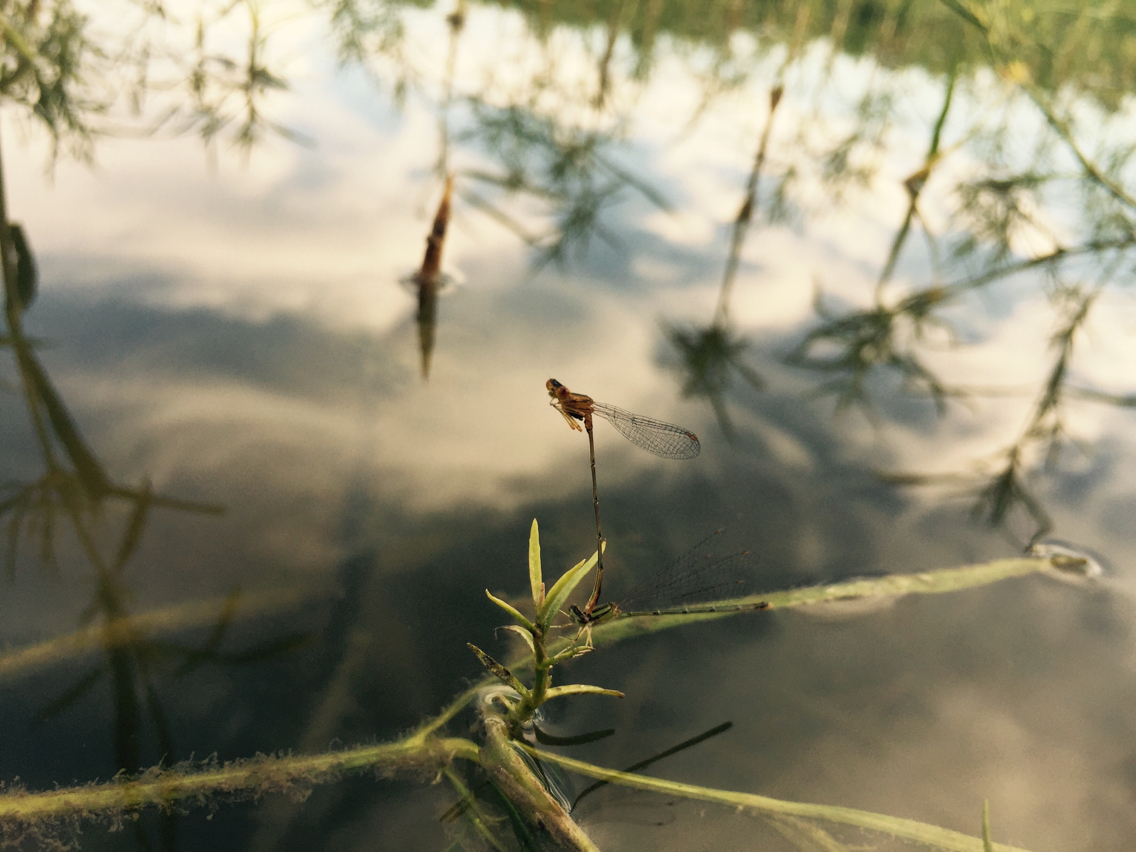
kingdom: Animalia
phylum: Arthropoda
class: Insecta
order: Odonata
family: Coenagrionidae
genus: Enallagma
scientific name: Enallagma signatum
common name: Orange bluet
